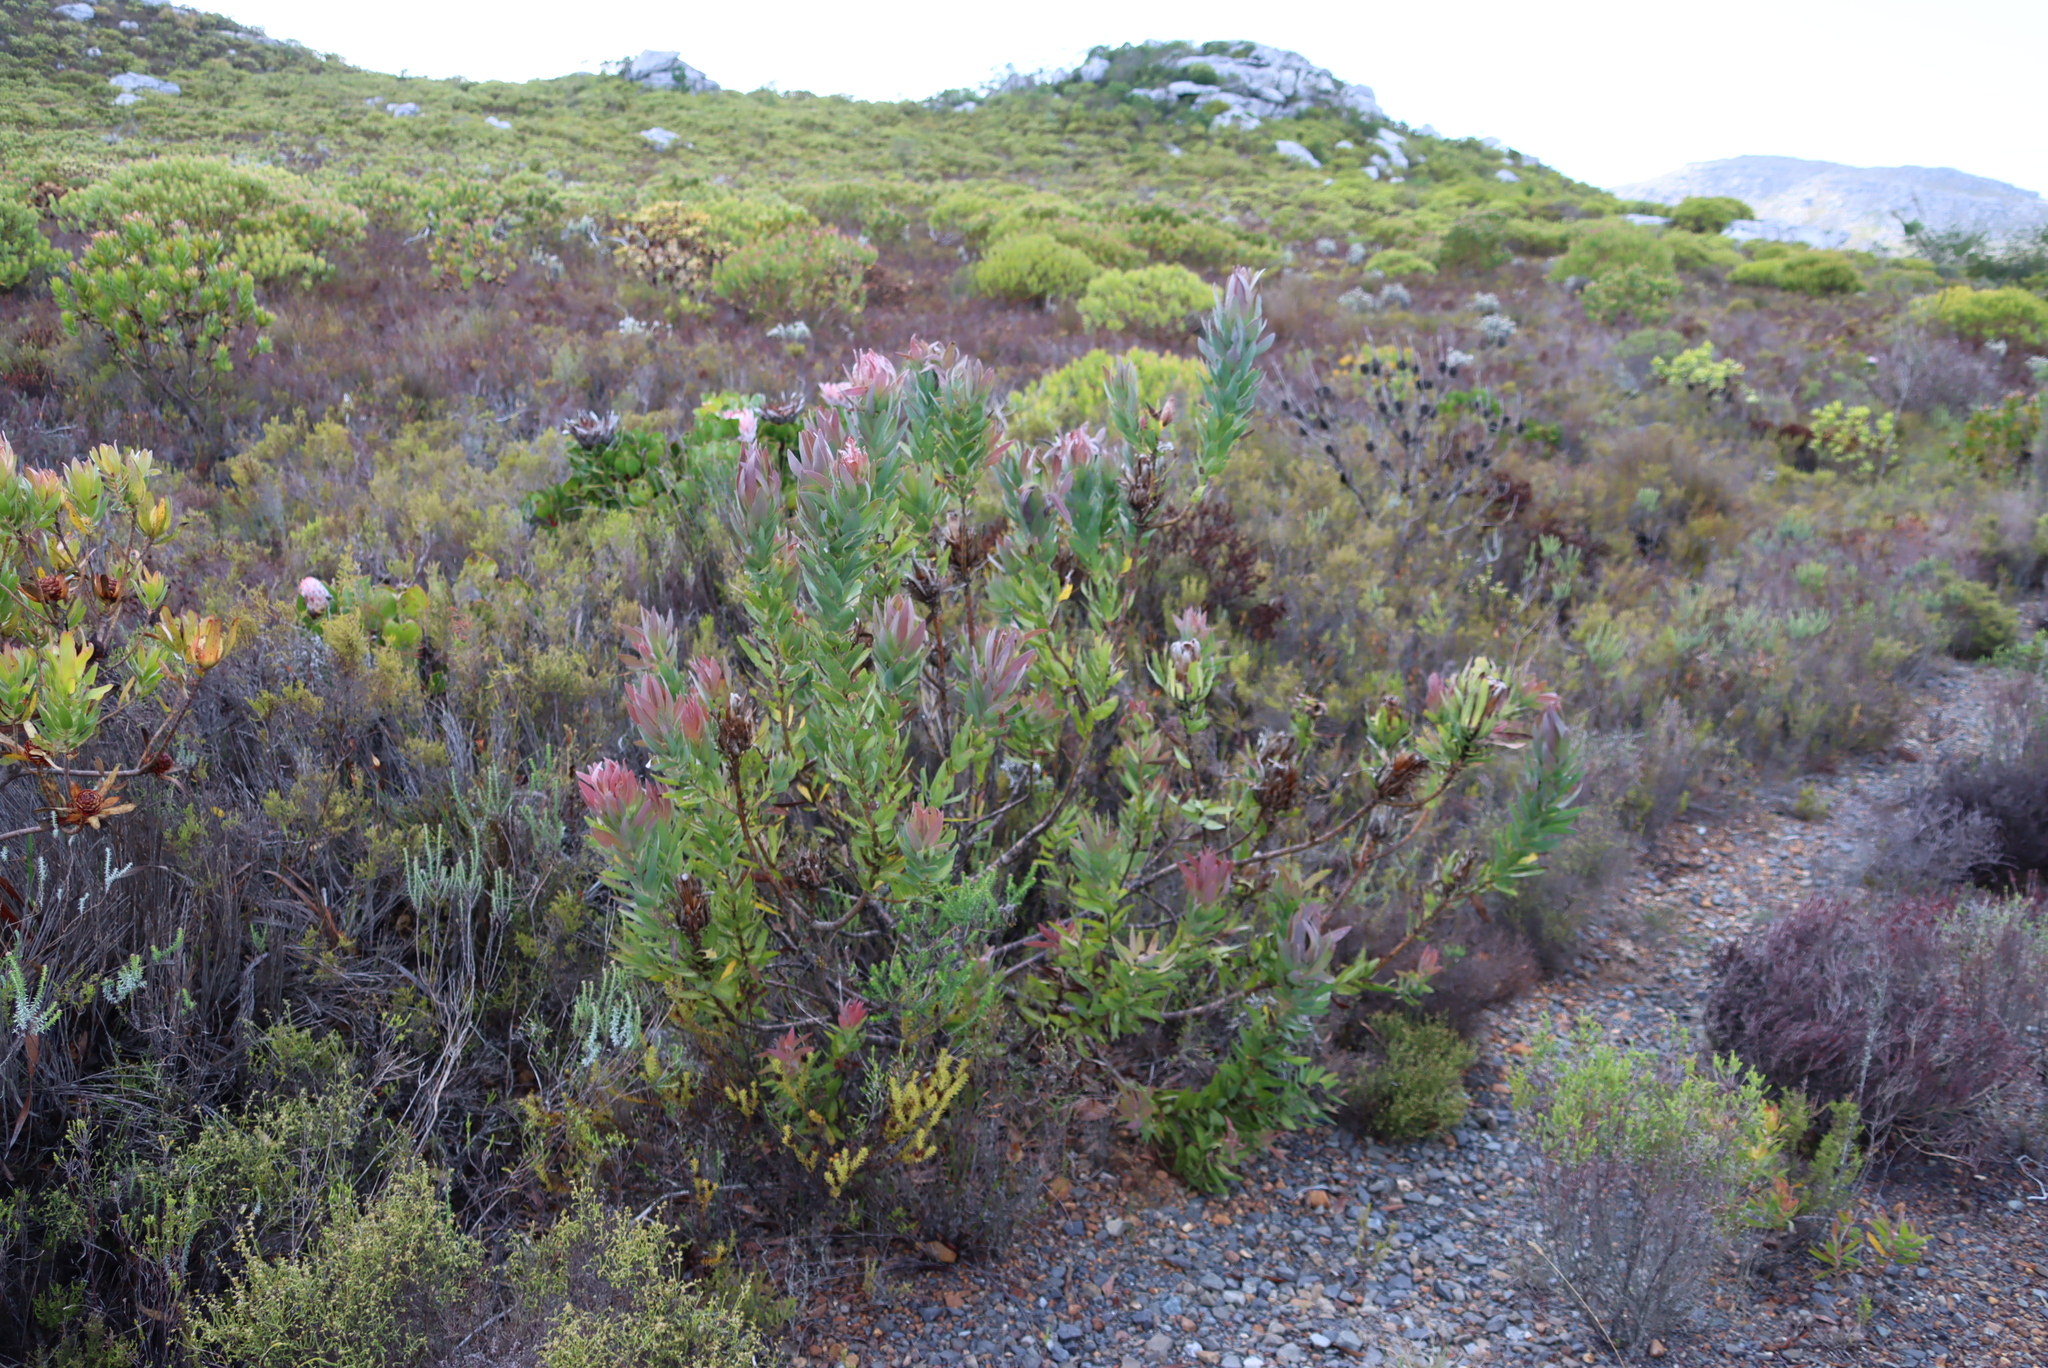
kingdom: Plantae
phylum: Tracheophyta
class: Magnoliopsida
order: Proteales
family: Proteaceae
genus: Protea
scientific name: Protea coronata
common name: Green sugarbush
